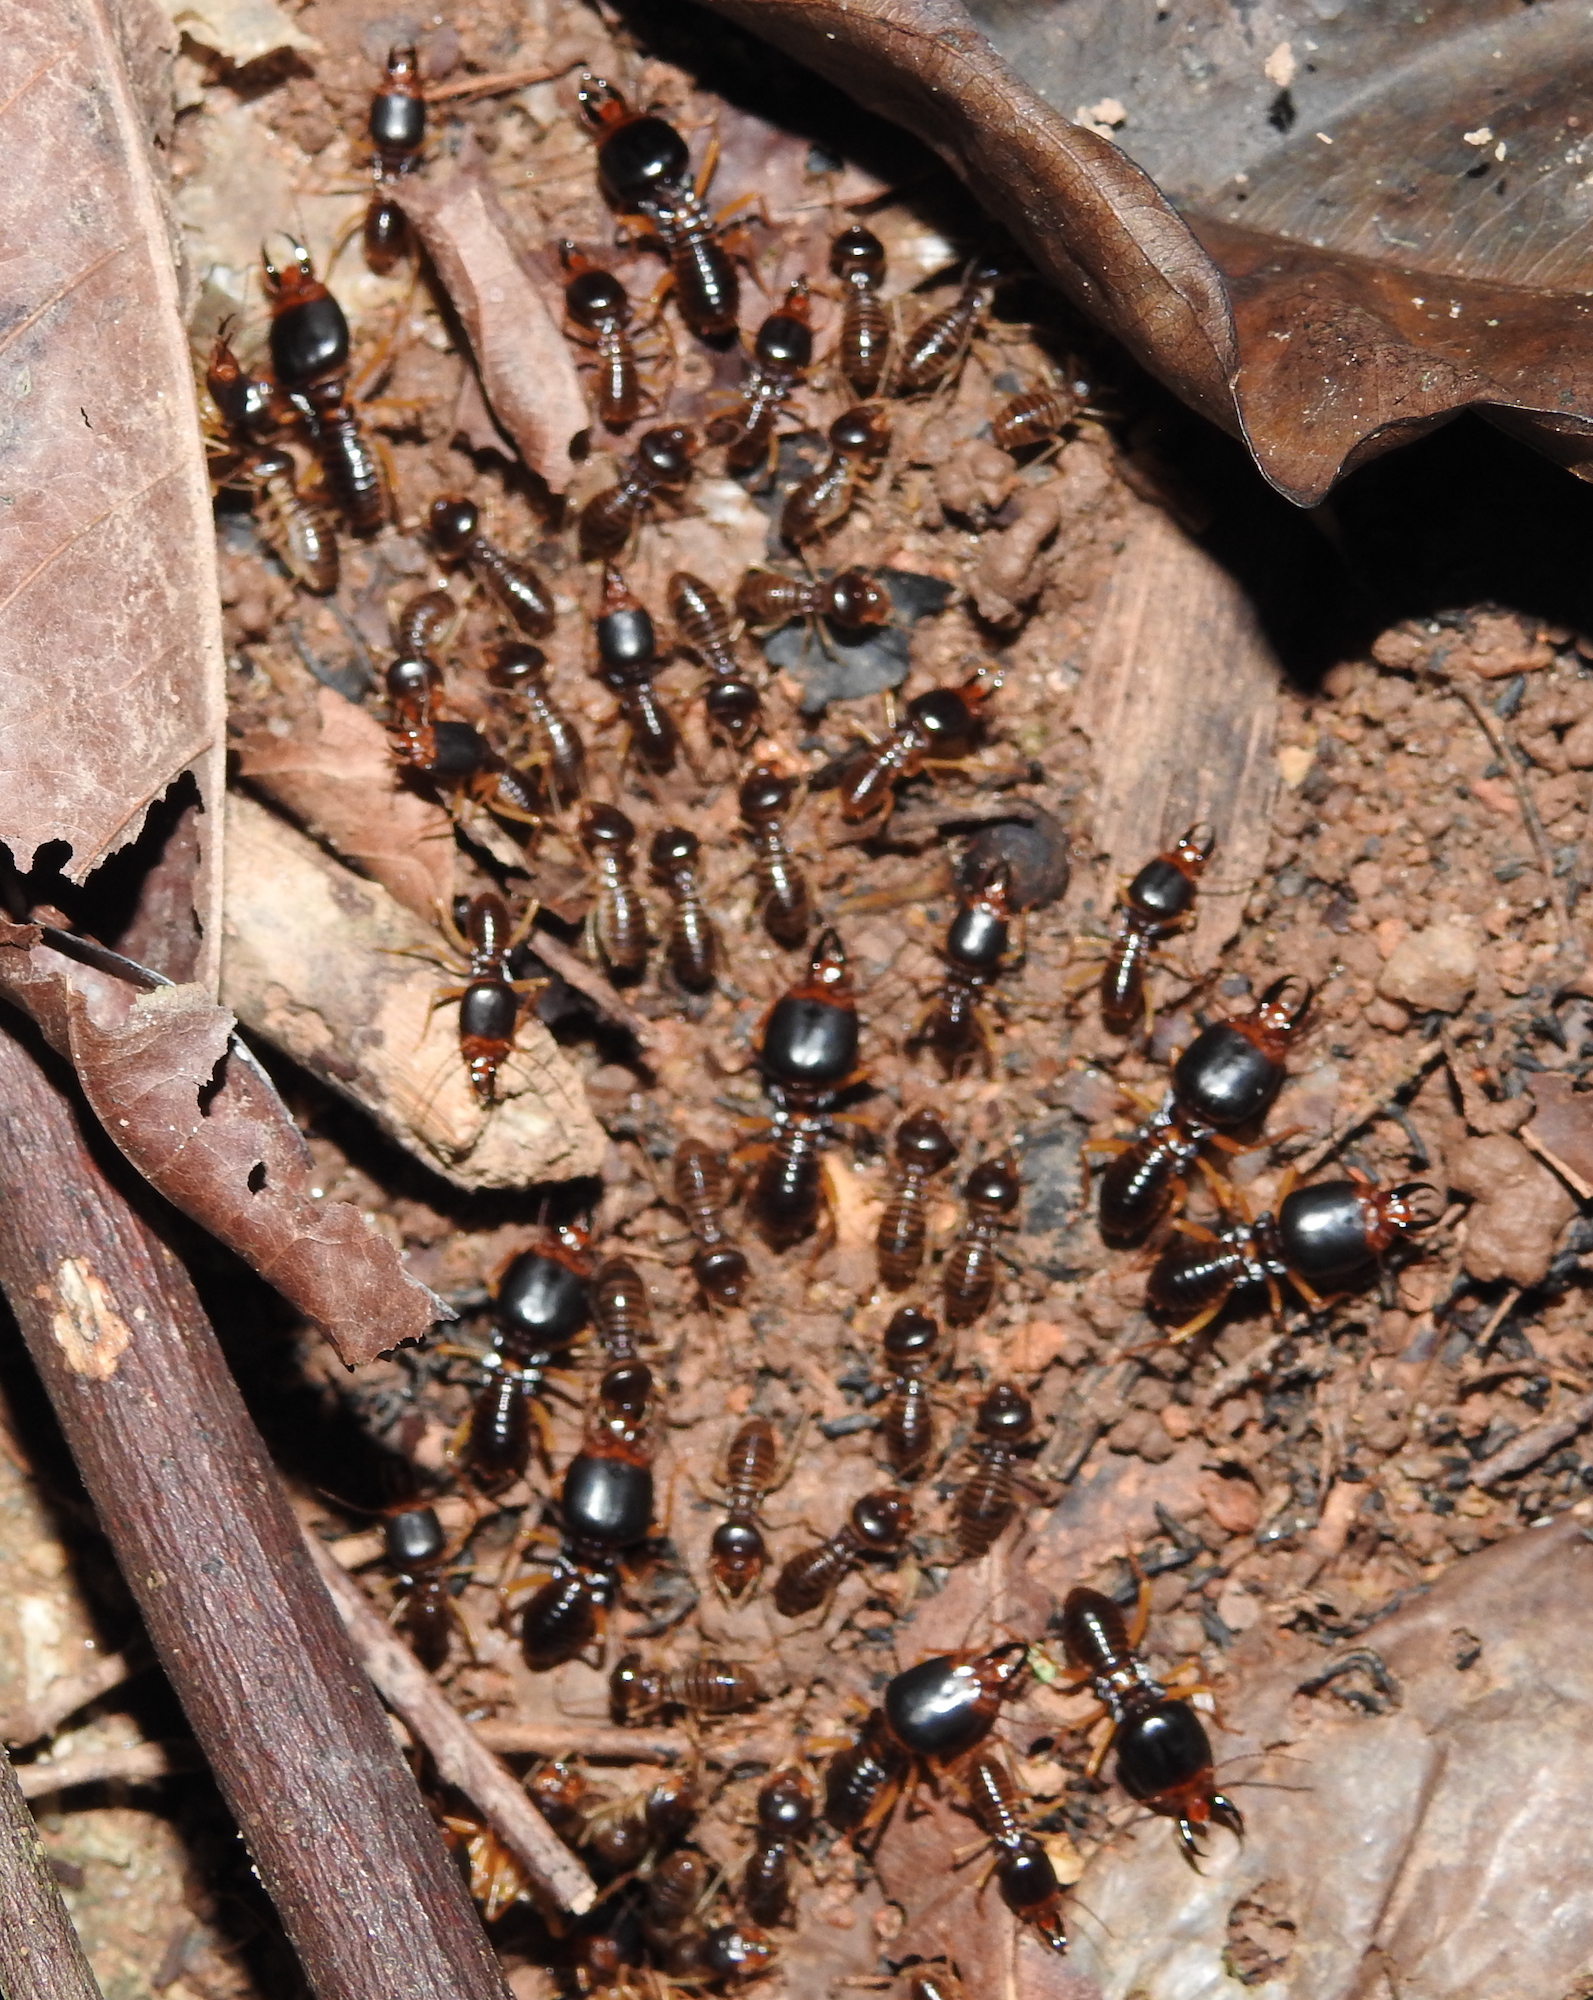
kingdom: Animalia
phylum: Arthropoda
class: Insecta
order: Blattodea
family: Termitidae
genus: Macrotermes
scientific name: Macrotermes carbonarius
